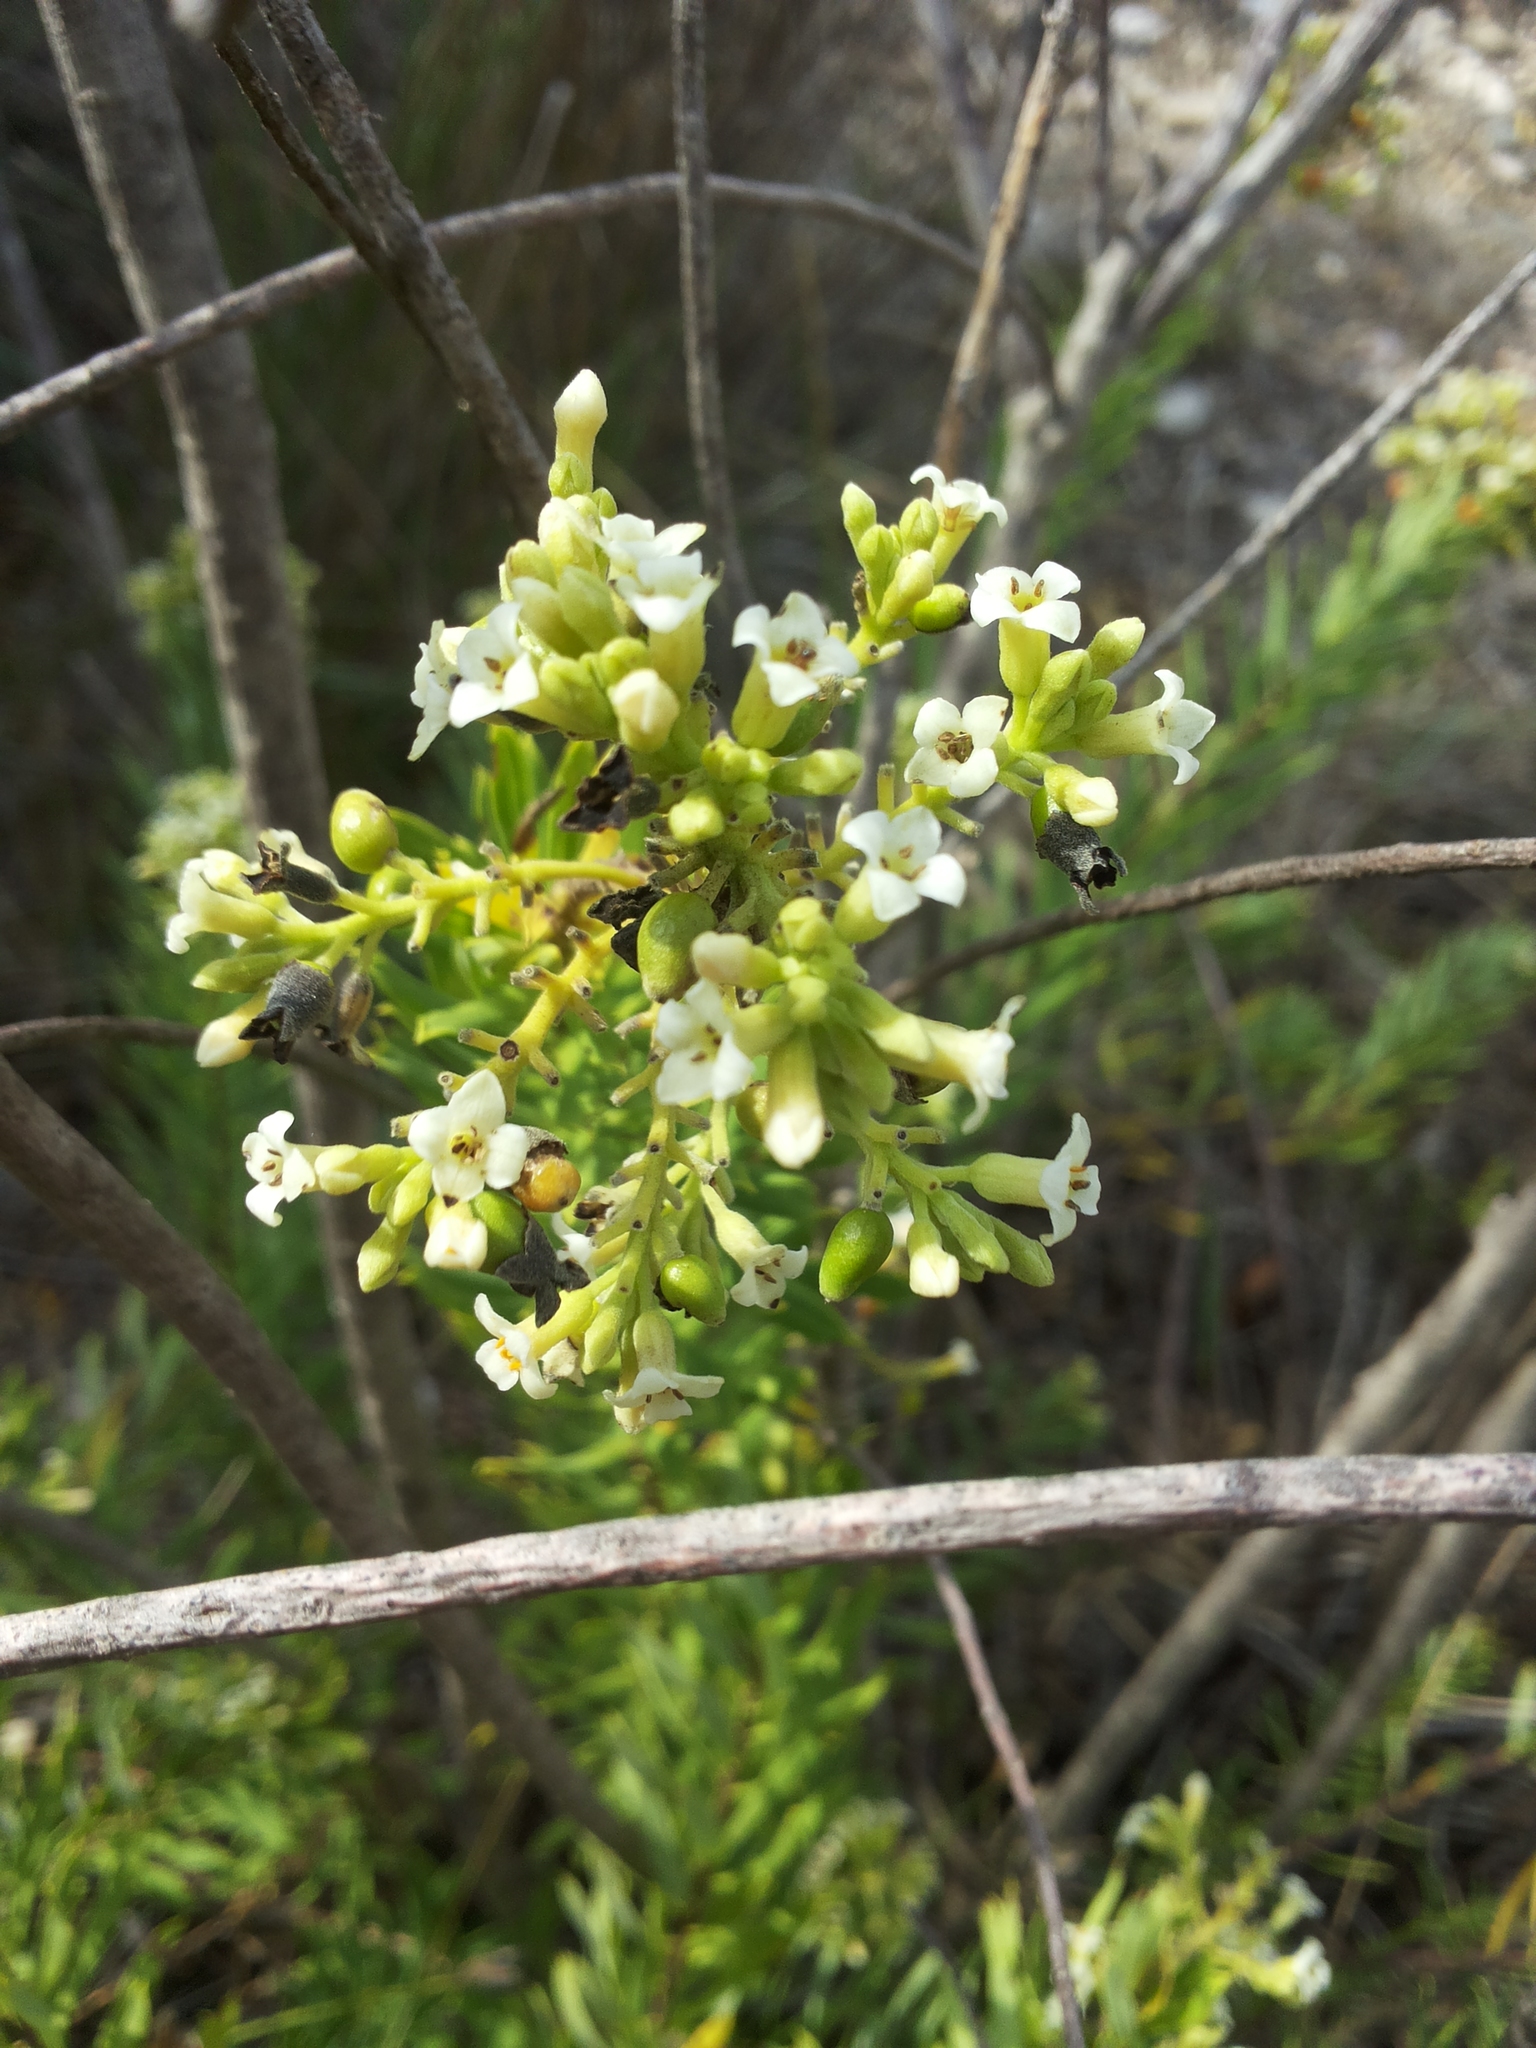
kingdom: Plantae
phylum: Tracheophyta
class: Magnoliopsida
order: Malvales
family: Thymelaeaceae
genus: Daphne
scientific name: Daphne gnidium
